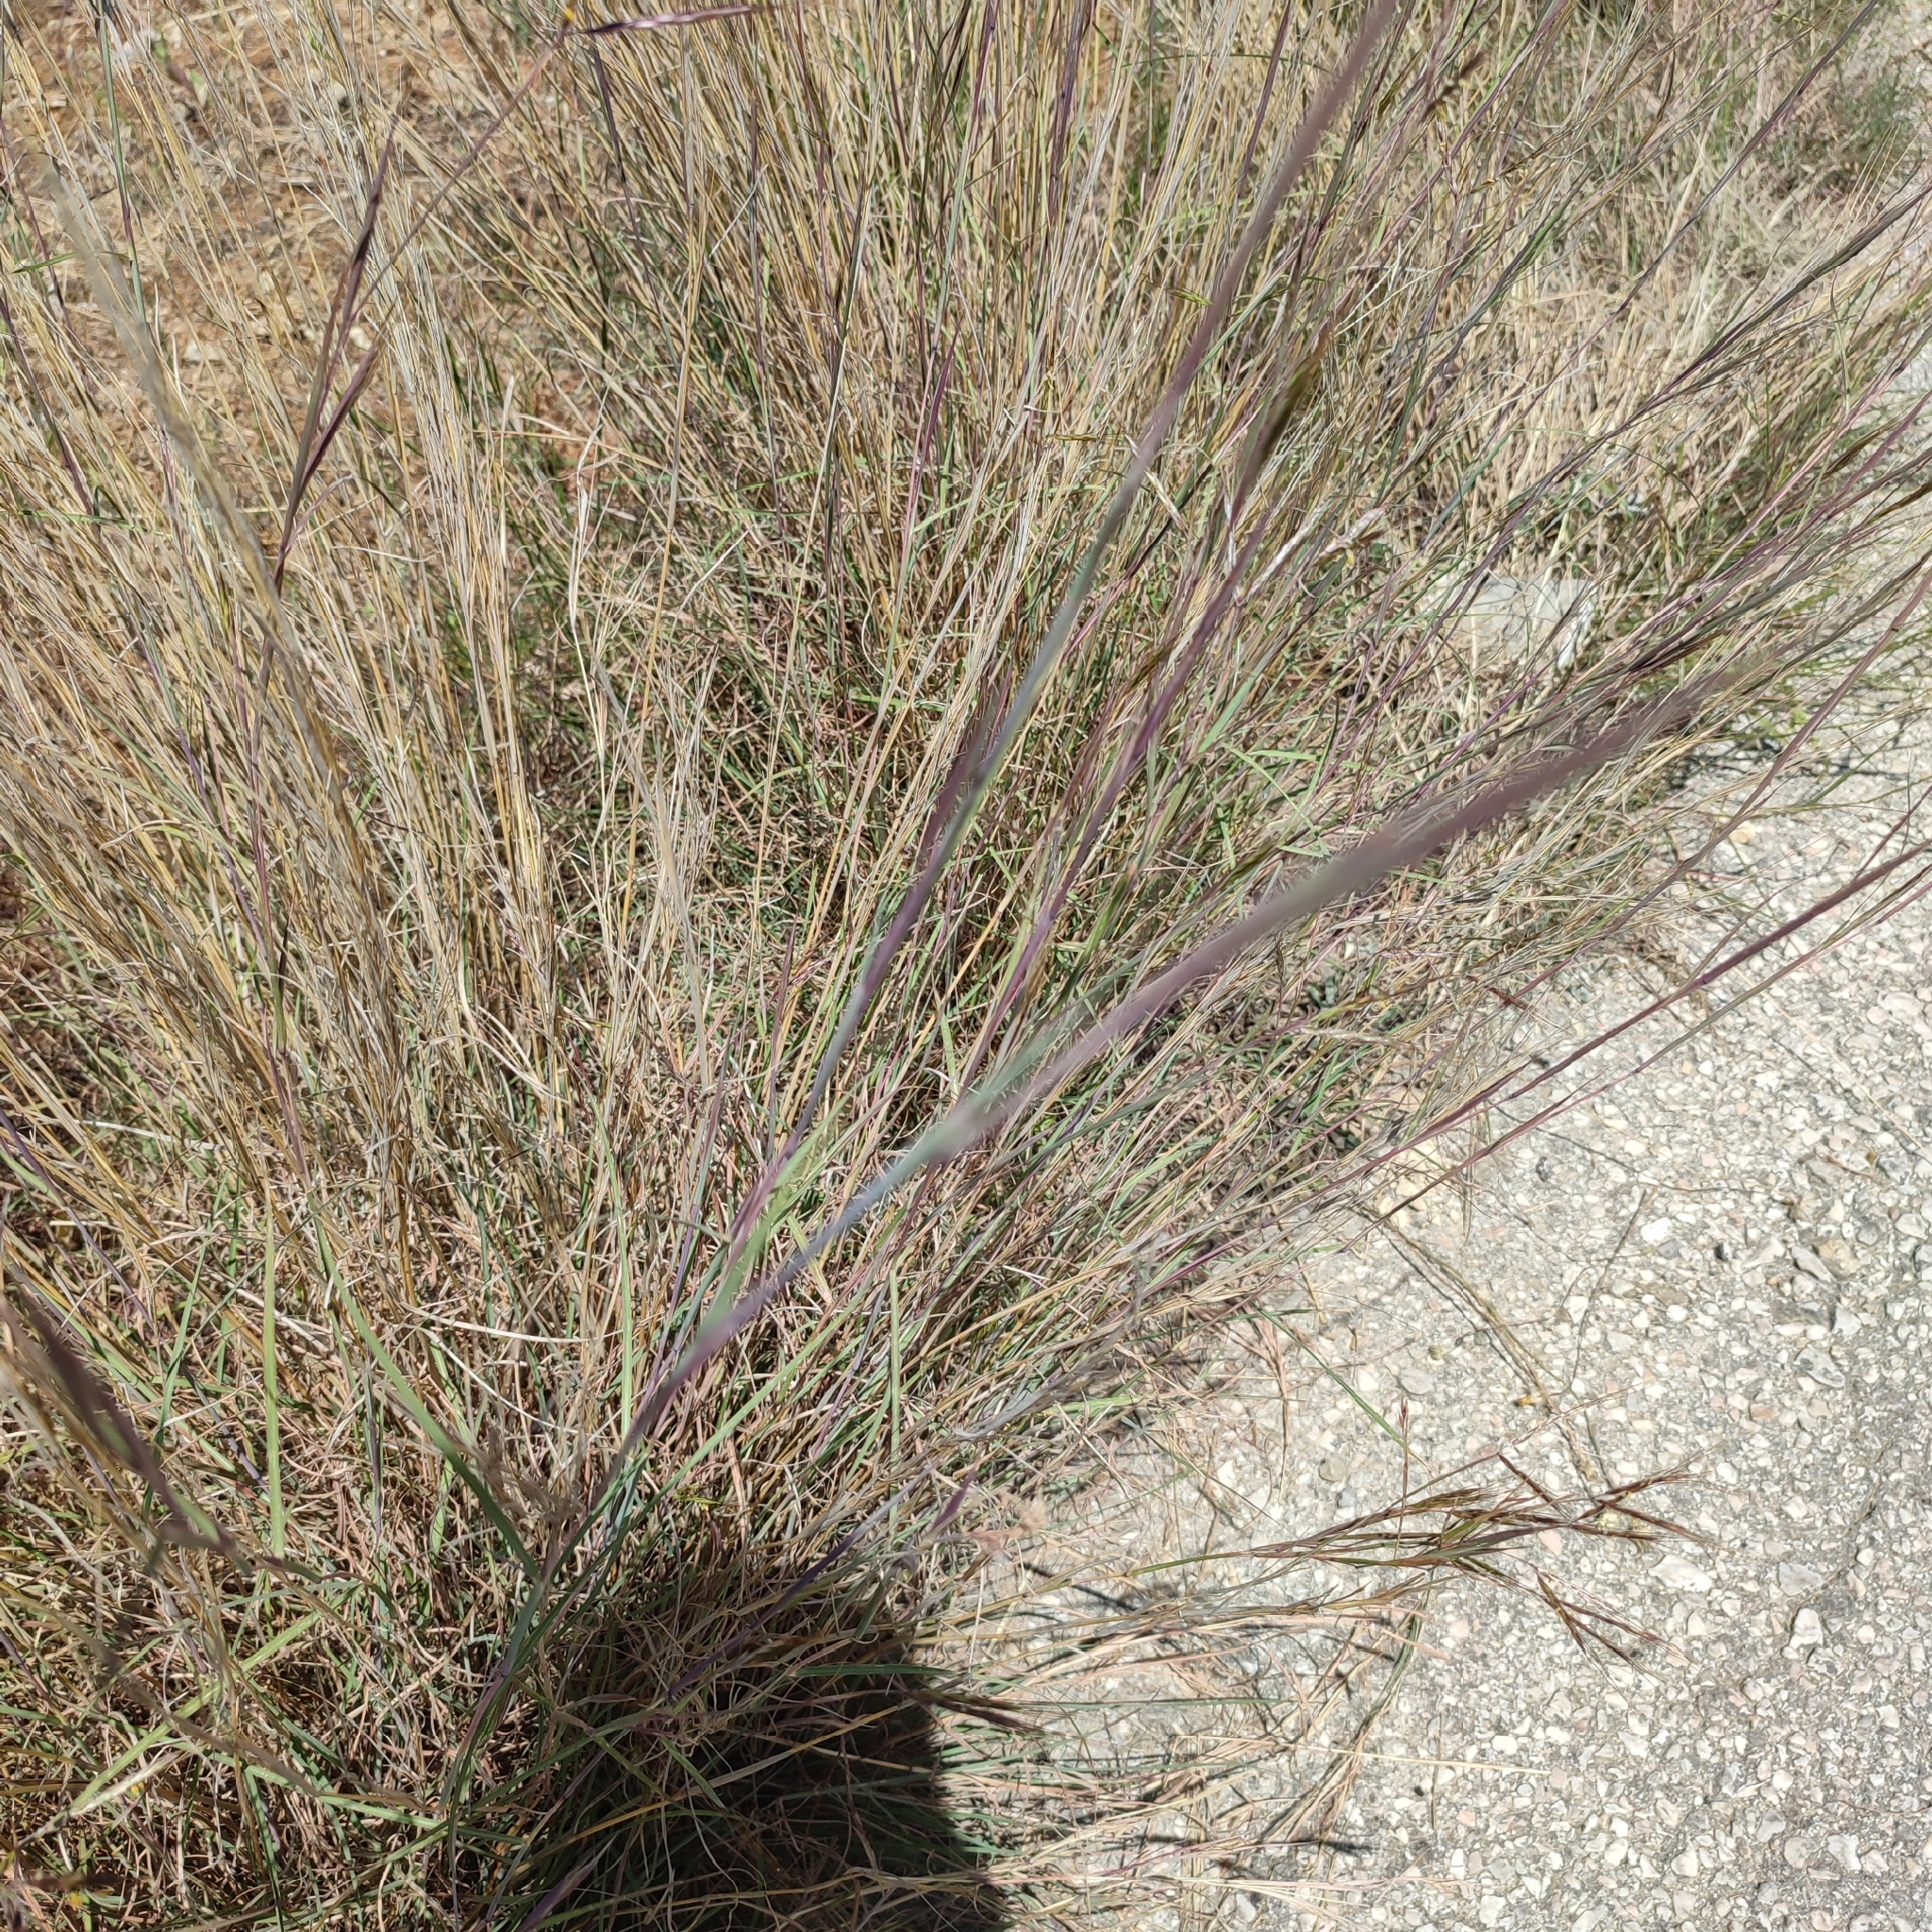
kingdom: Plantae
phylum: Tracheophyta
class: Liliopsida
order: Poales
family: Poaceae
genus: Hyparrhenia
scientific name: Hyparrhenia hirta
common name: Thatching grass
